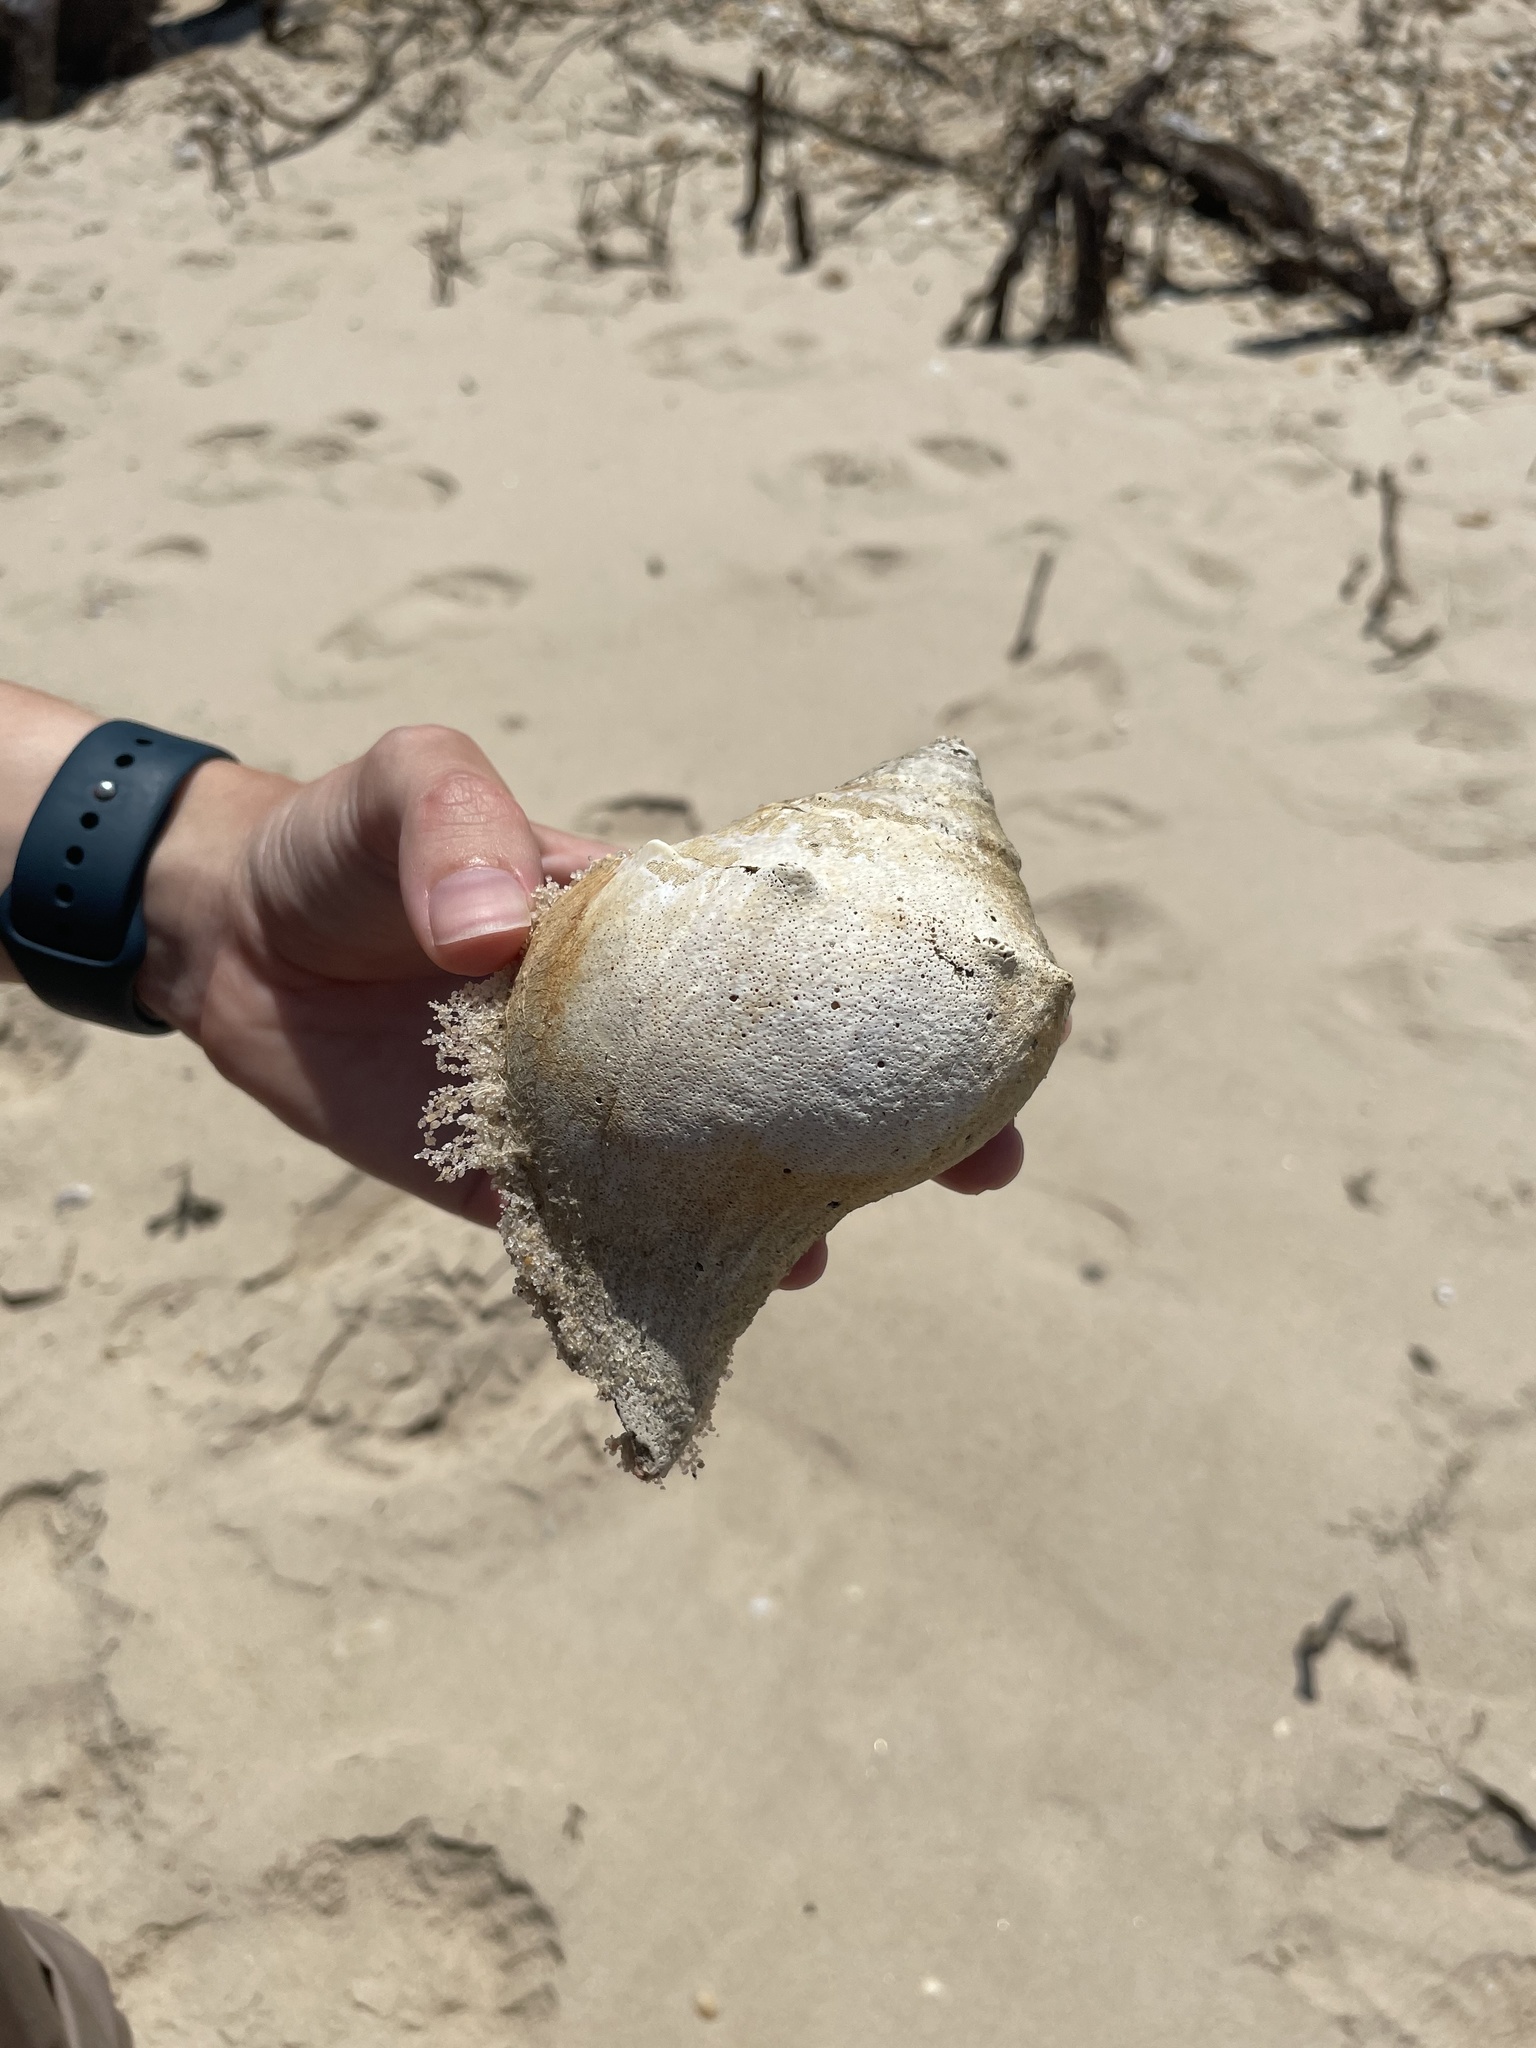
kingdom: Animalia
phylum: Mollusca
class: Gastropoda
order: Neogastropoda
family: Busyconidae
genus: Busycon
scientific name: Busycon carica
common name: Knobbed whelk
